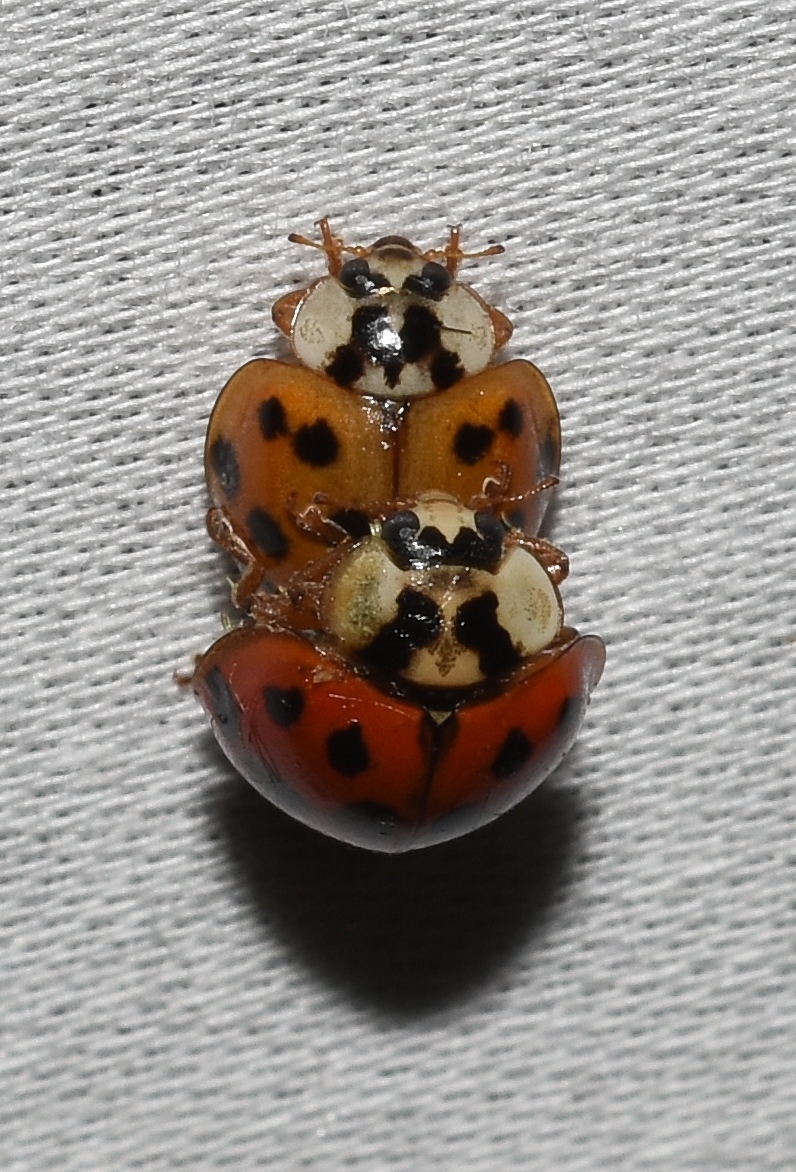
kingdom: Animalia
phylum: Arthropoda
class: Insecta
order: Coleoptera
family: Coccinellidae
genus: Harmonia
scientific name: Harmonia axyridis
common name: Harlequin ladybird
